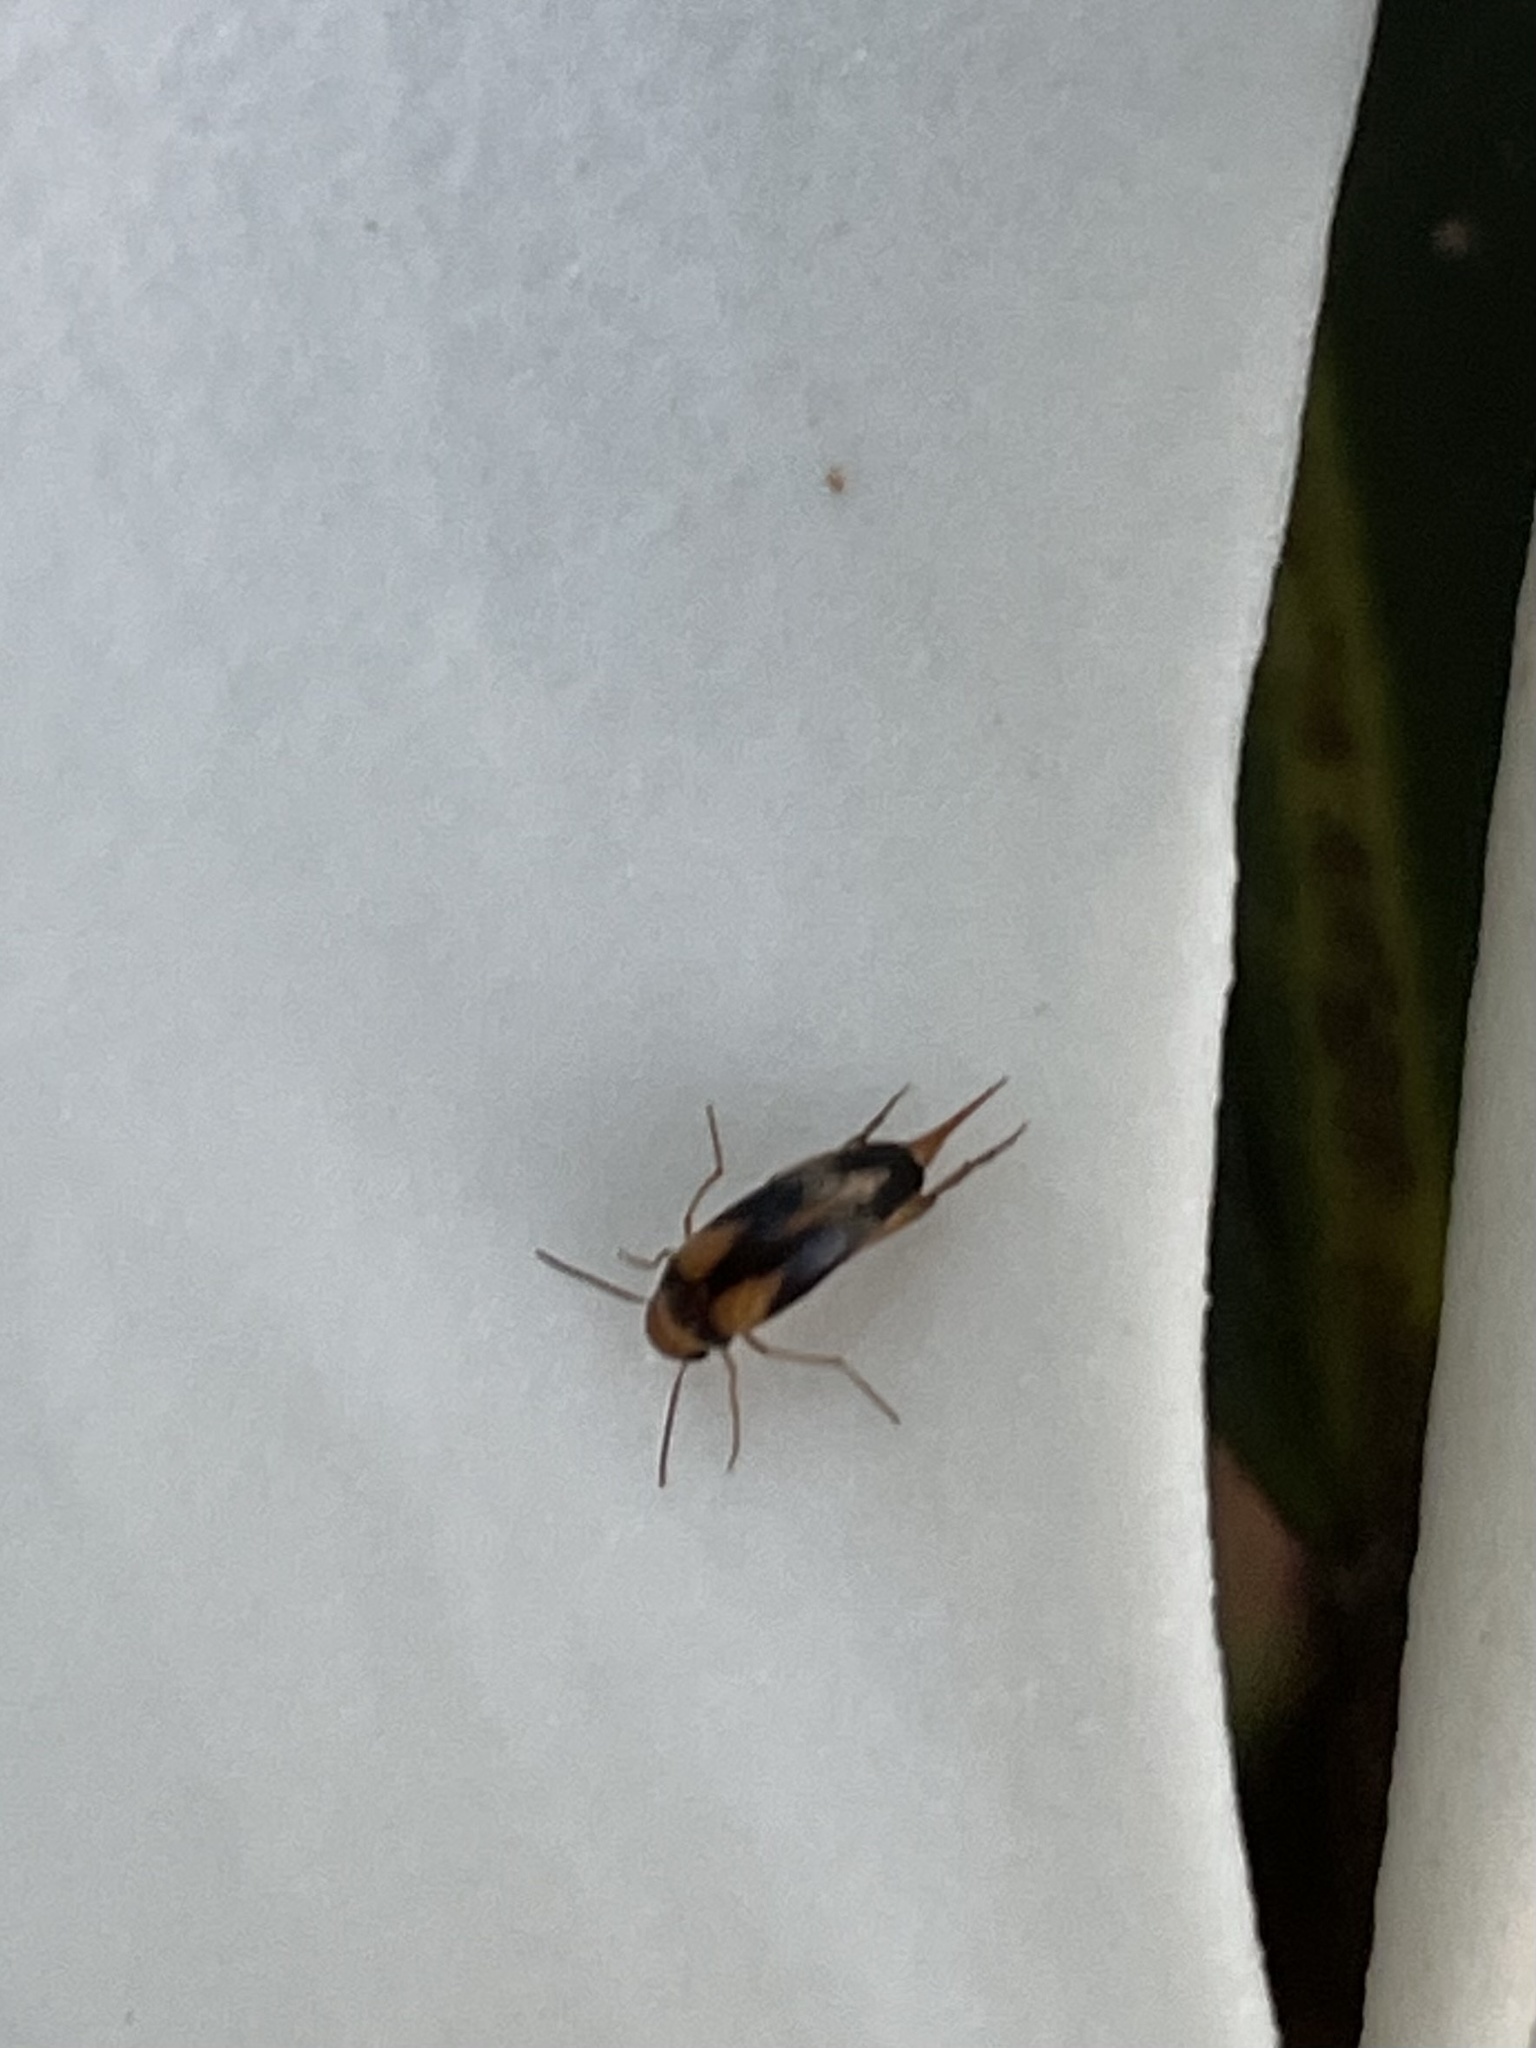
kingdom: Animalia
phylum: Arthropoda
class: Insecta
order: Coleoptera
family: Mordellidae
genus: Mordellistena
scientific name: Mordellistena ornata
